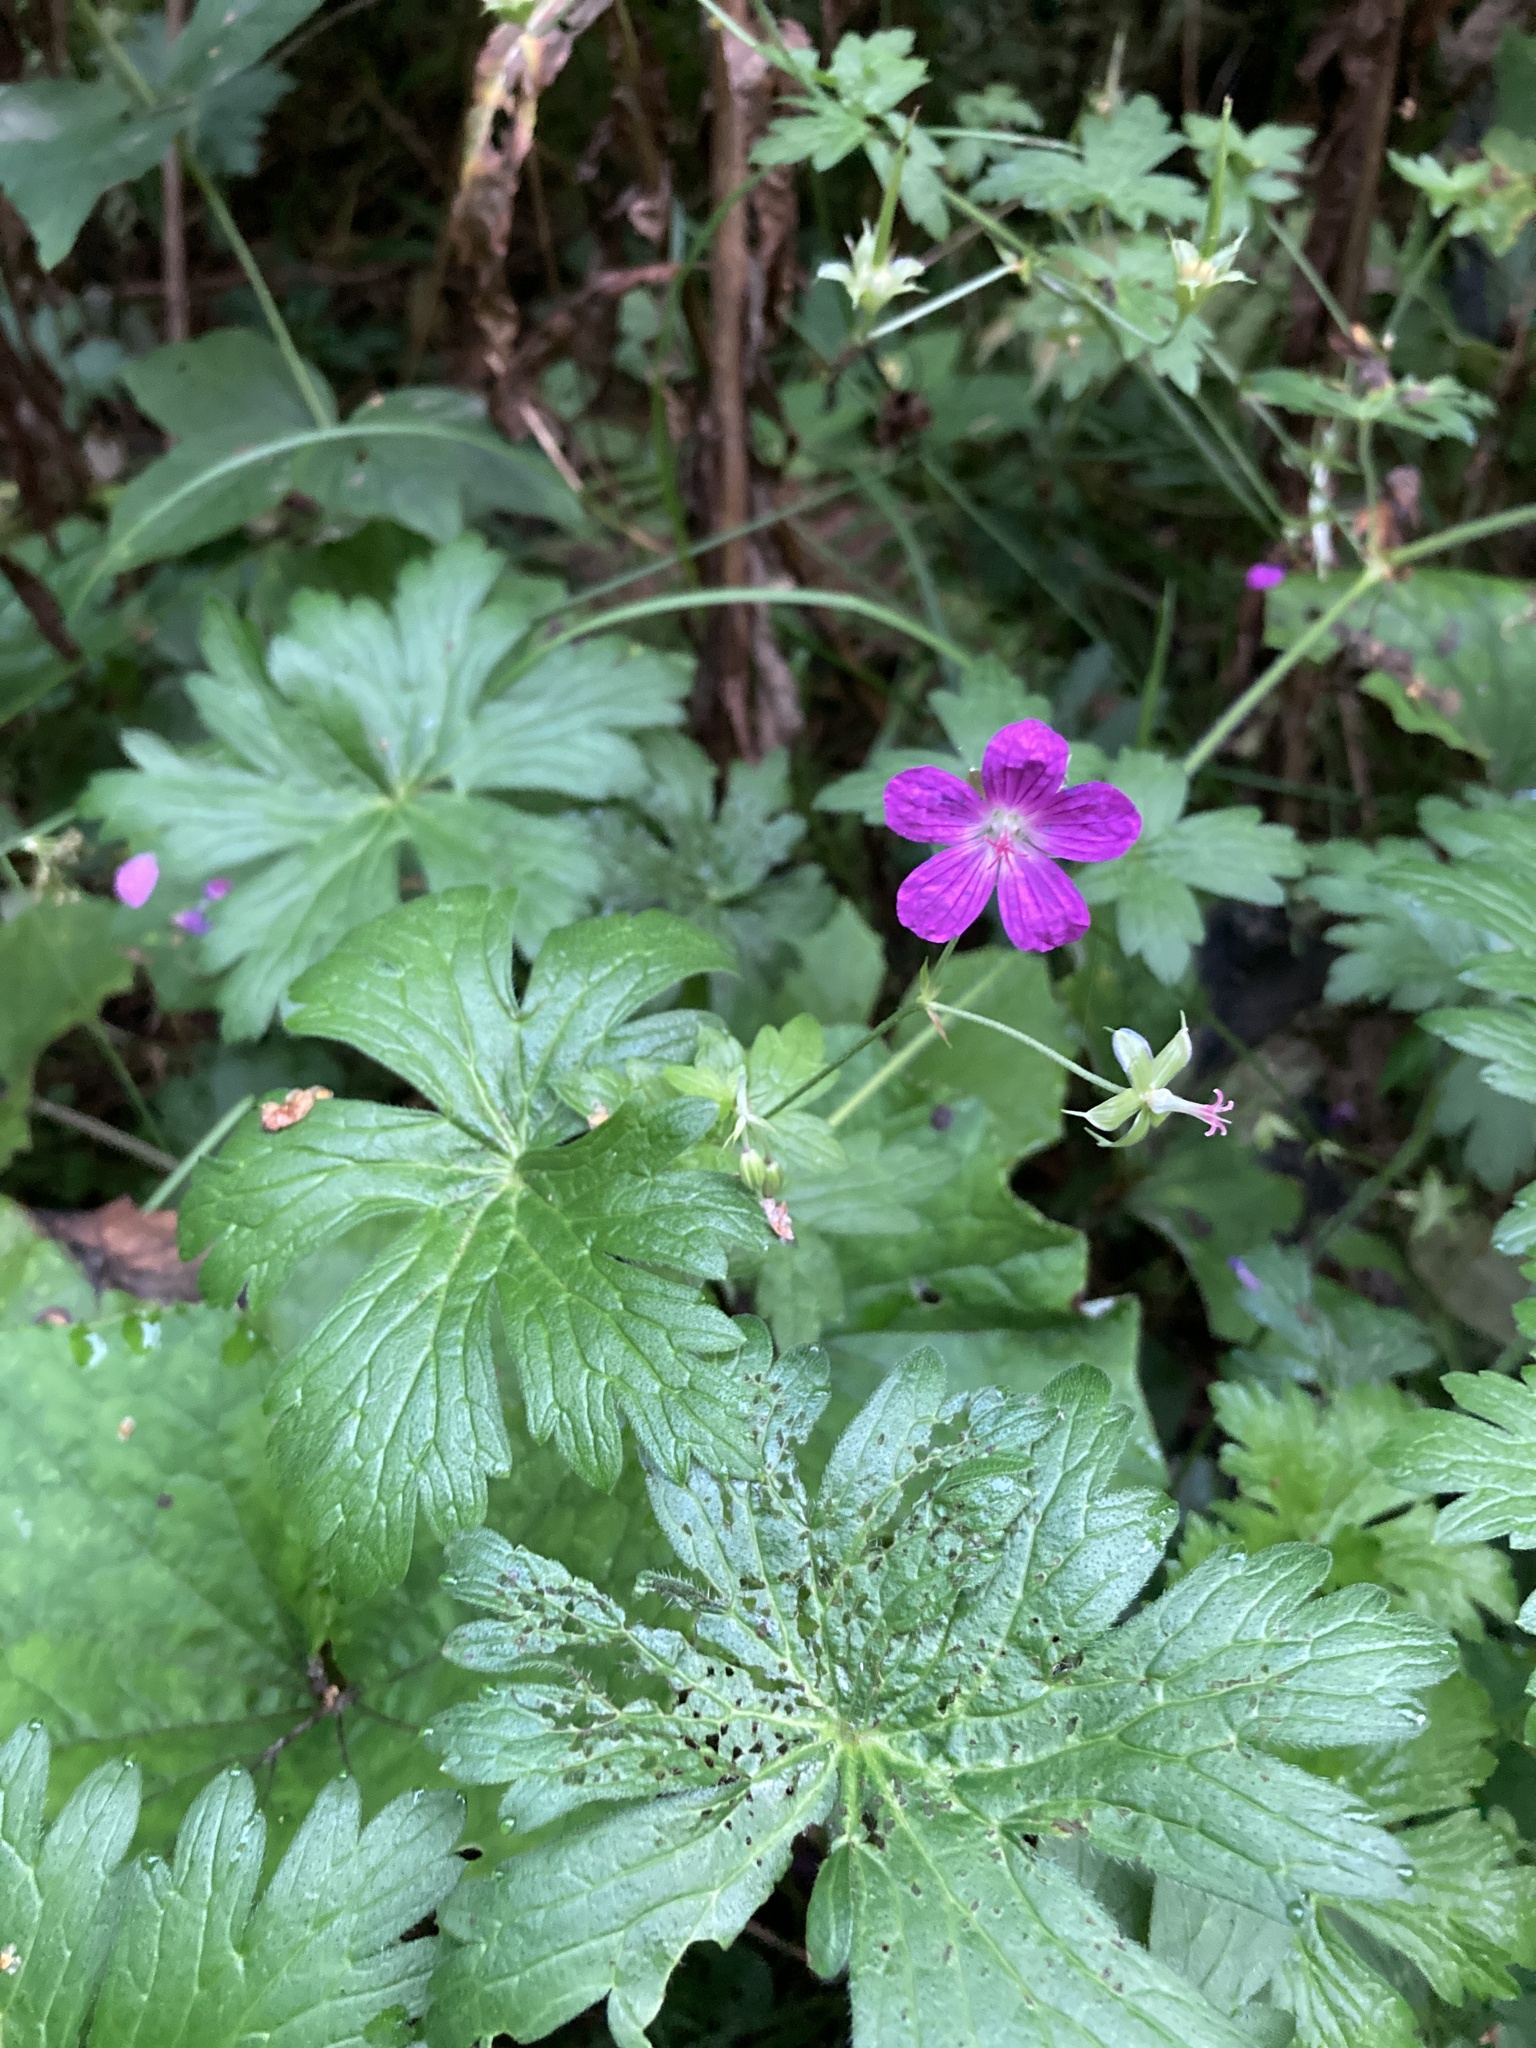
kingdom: Plantae
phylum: Tracheophyta
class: Magnoliopsida
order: Geraniales
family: Geraniaceae
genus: Geranium
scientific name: Geranium palustre
